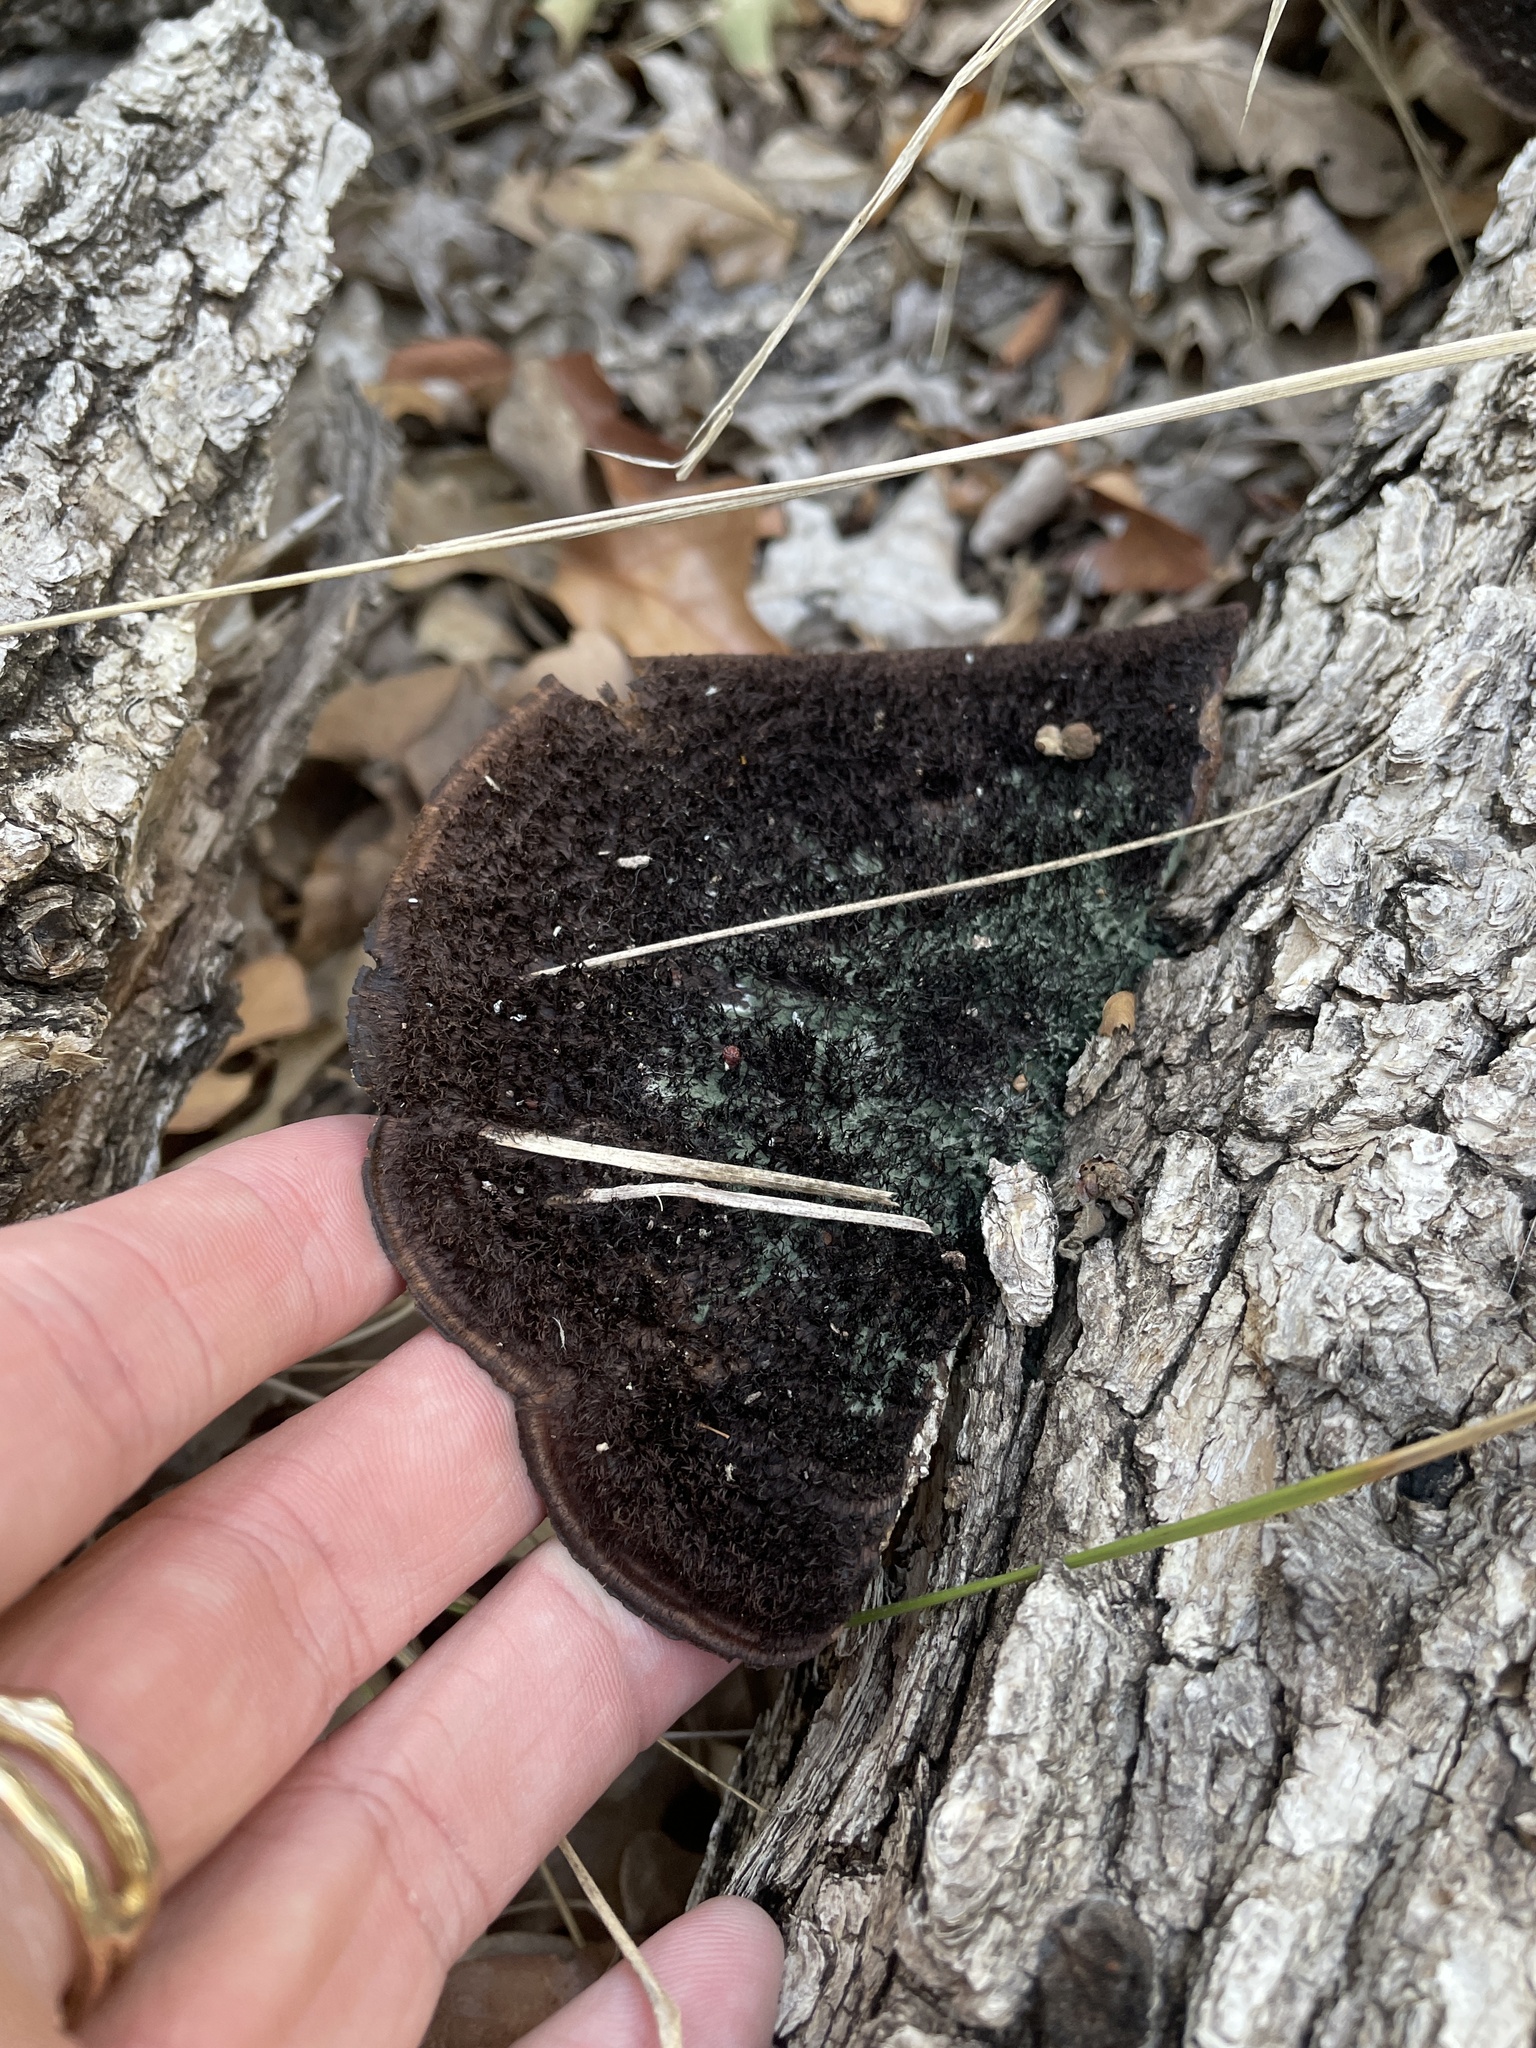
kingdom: Fungi
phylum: Basidiomycota
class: Agaricomycetes
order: Polyporales
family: Cerrenaceae
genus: Cerrena
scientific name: Cerrena hydnoides
